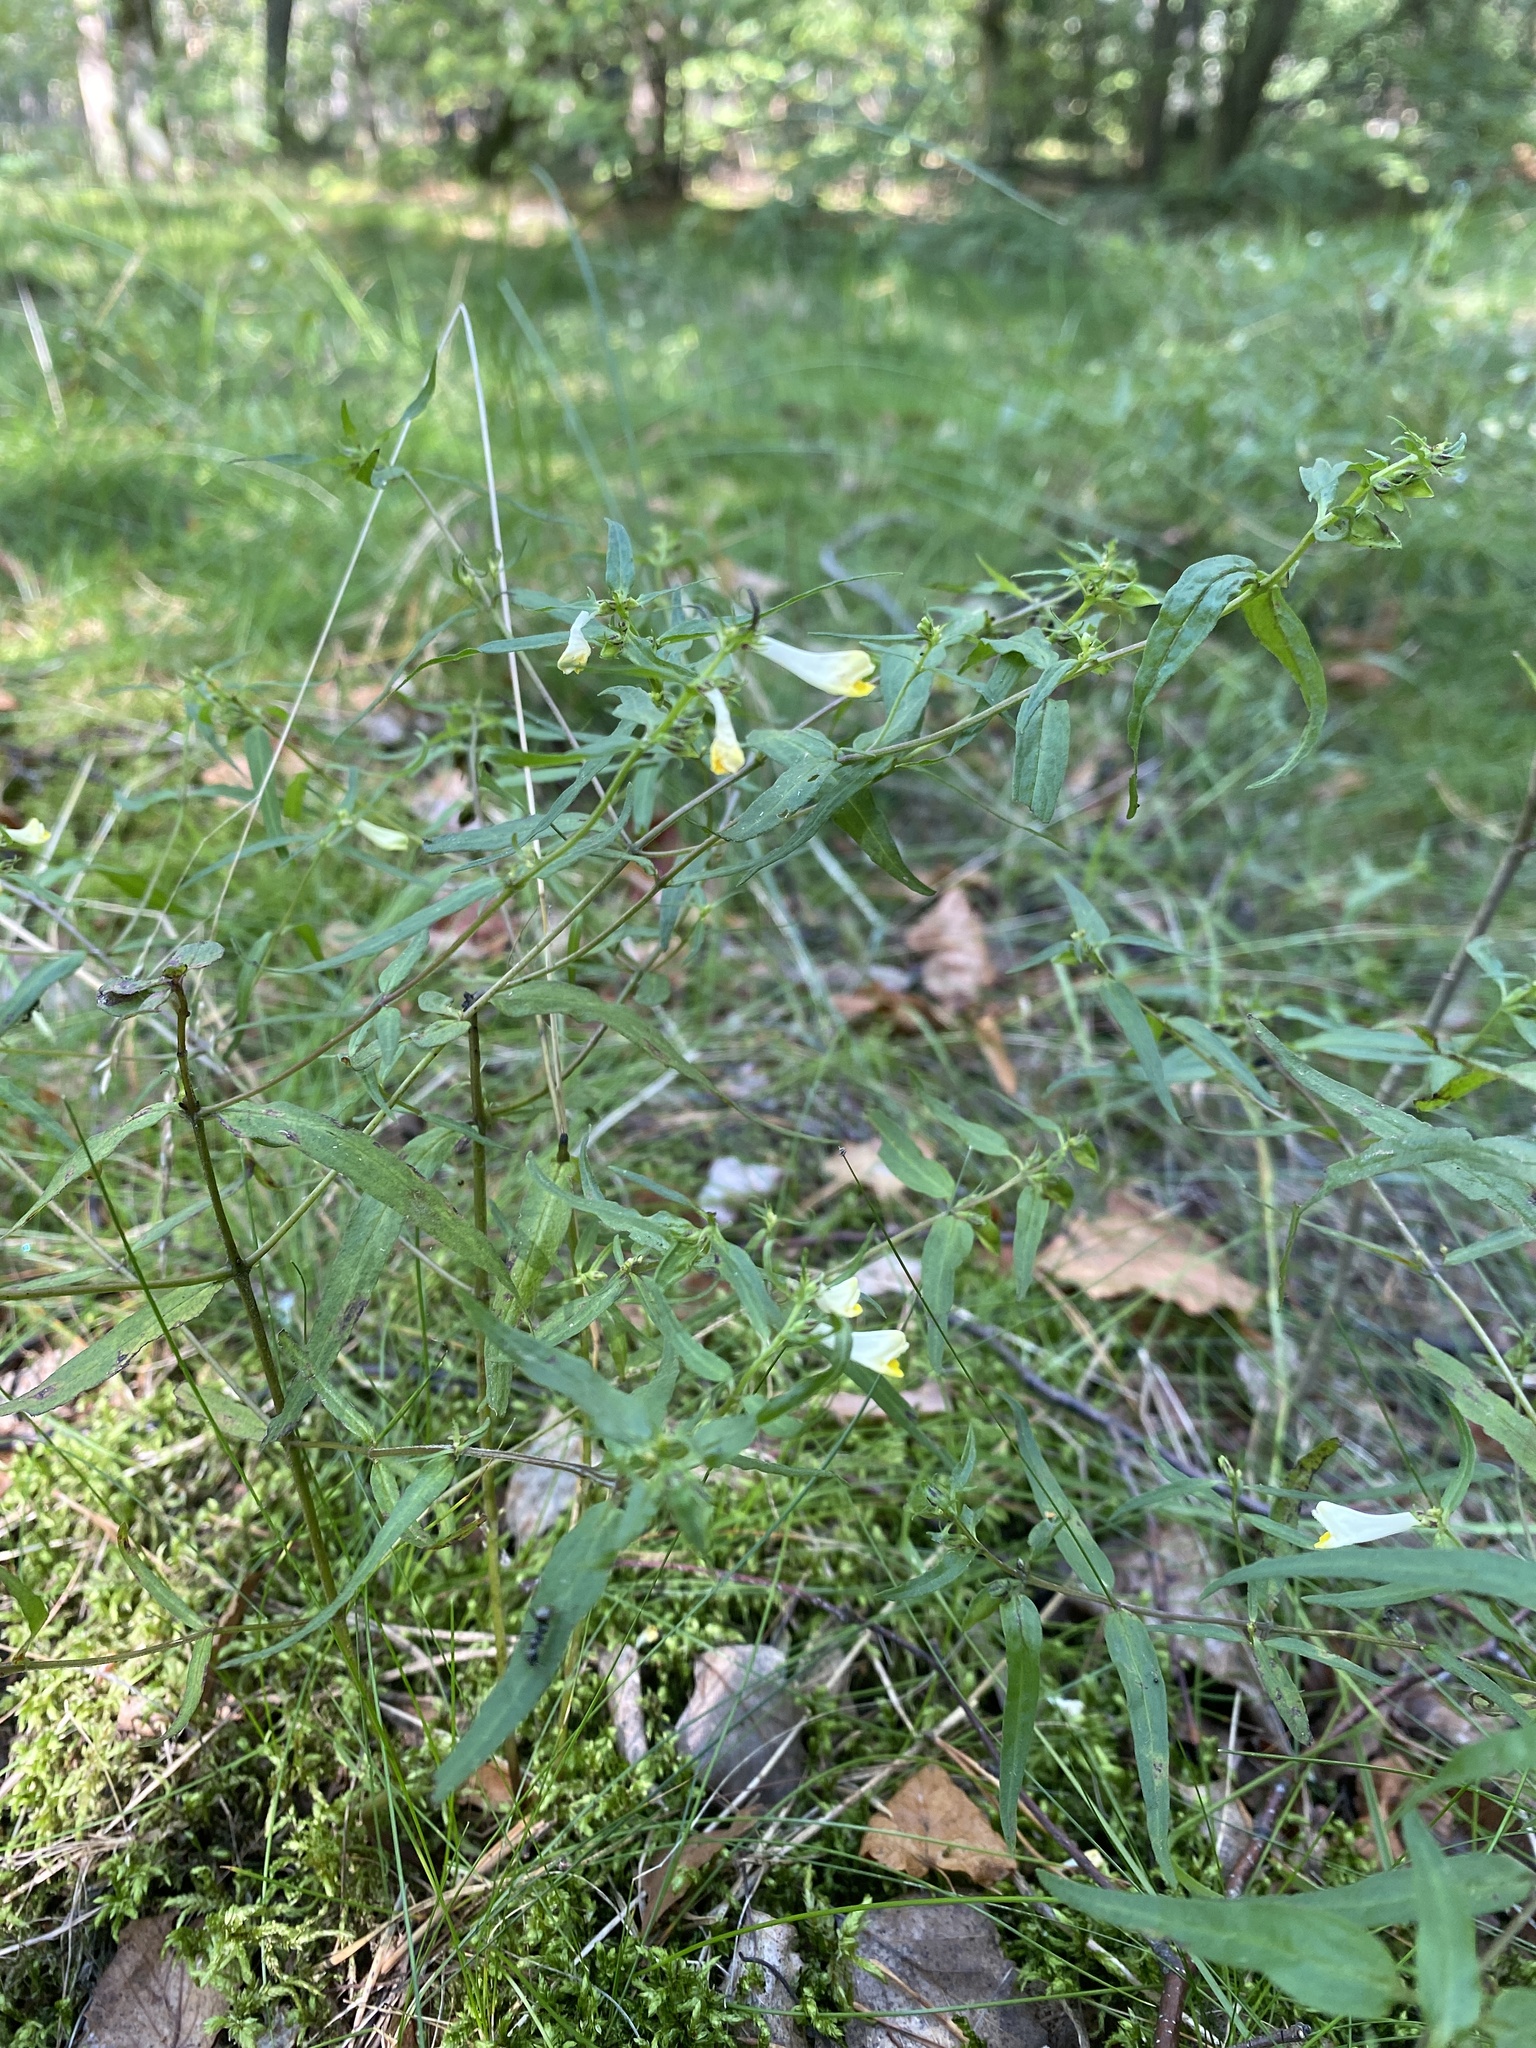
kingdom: Plantae
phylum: Tracheophyta
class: Magnoliopsida
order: Lamiales
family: Orobanchaceae
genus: Melampyrum
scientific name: Melampyrum pratense
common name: Common cow-wheat
